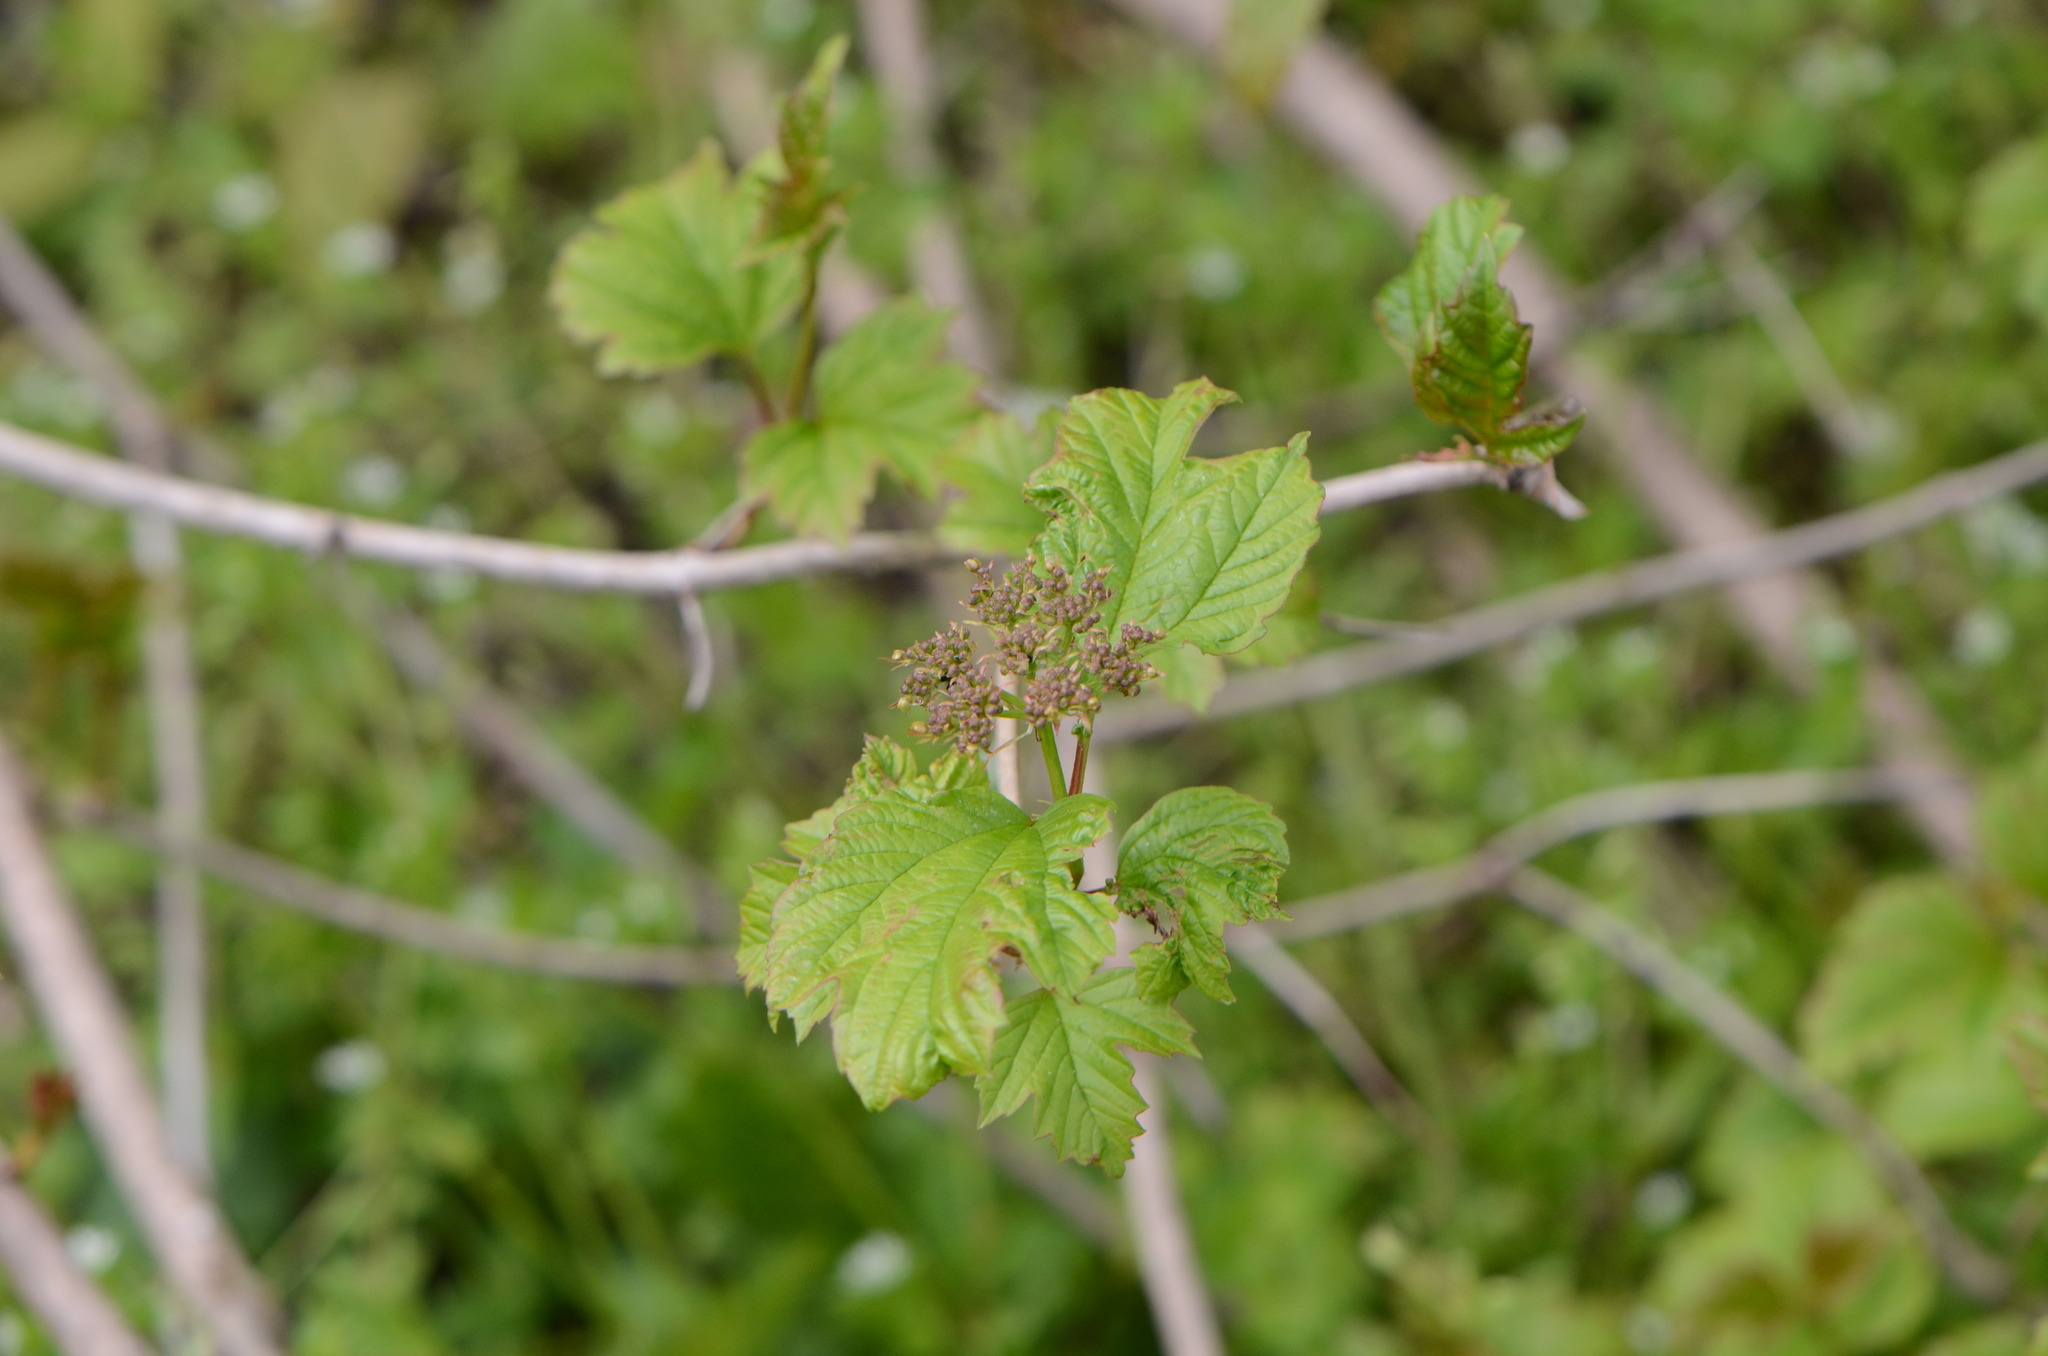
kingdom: Plantae
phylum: Tracheophyta
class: Magnoliopsida
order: Dipsacales
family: Viburnaceae
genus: Viburnum
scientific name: Viburnum opulus
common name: Guelder-rose
